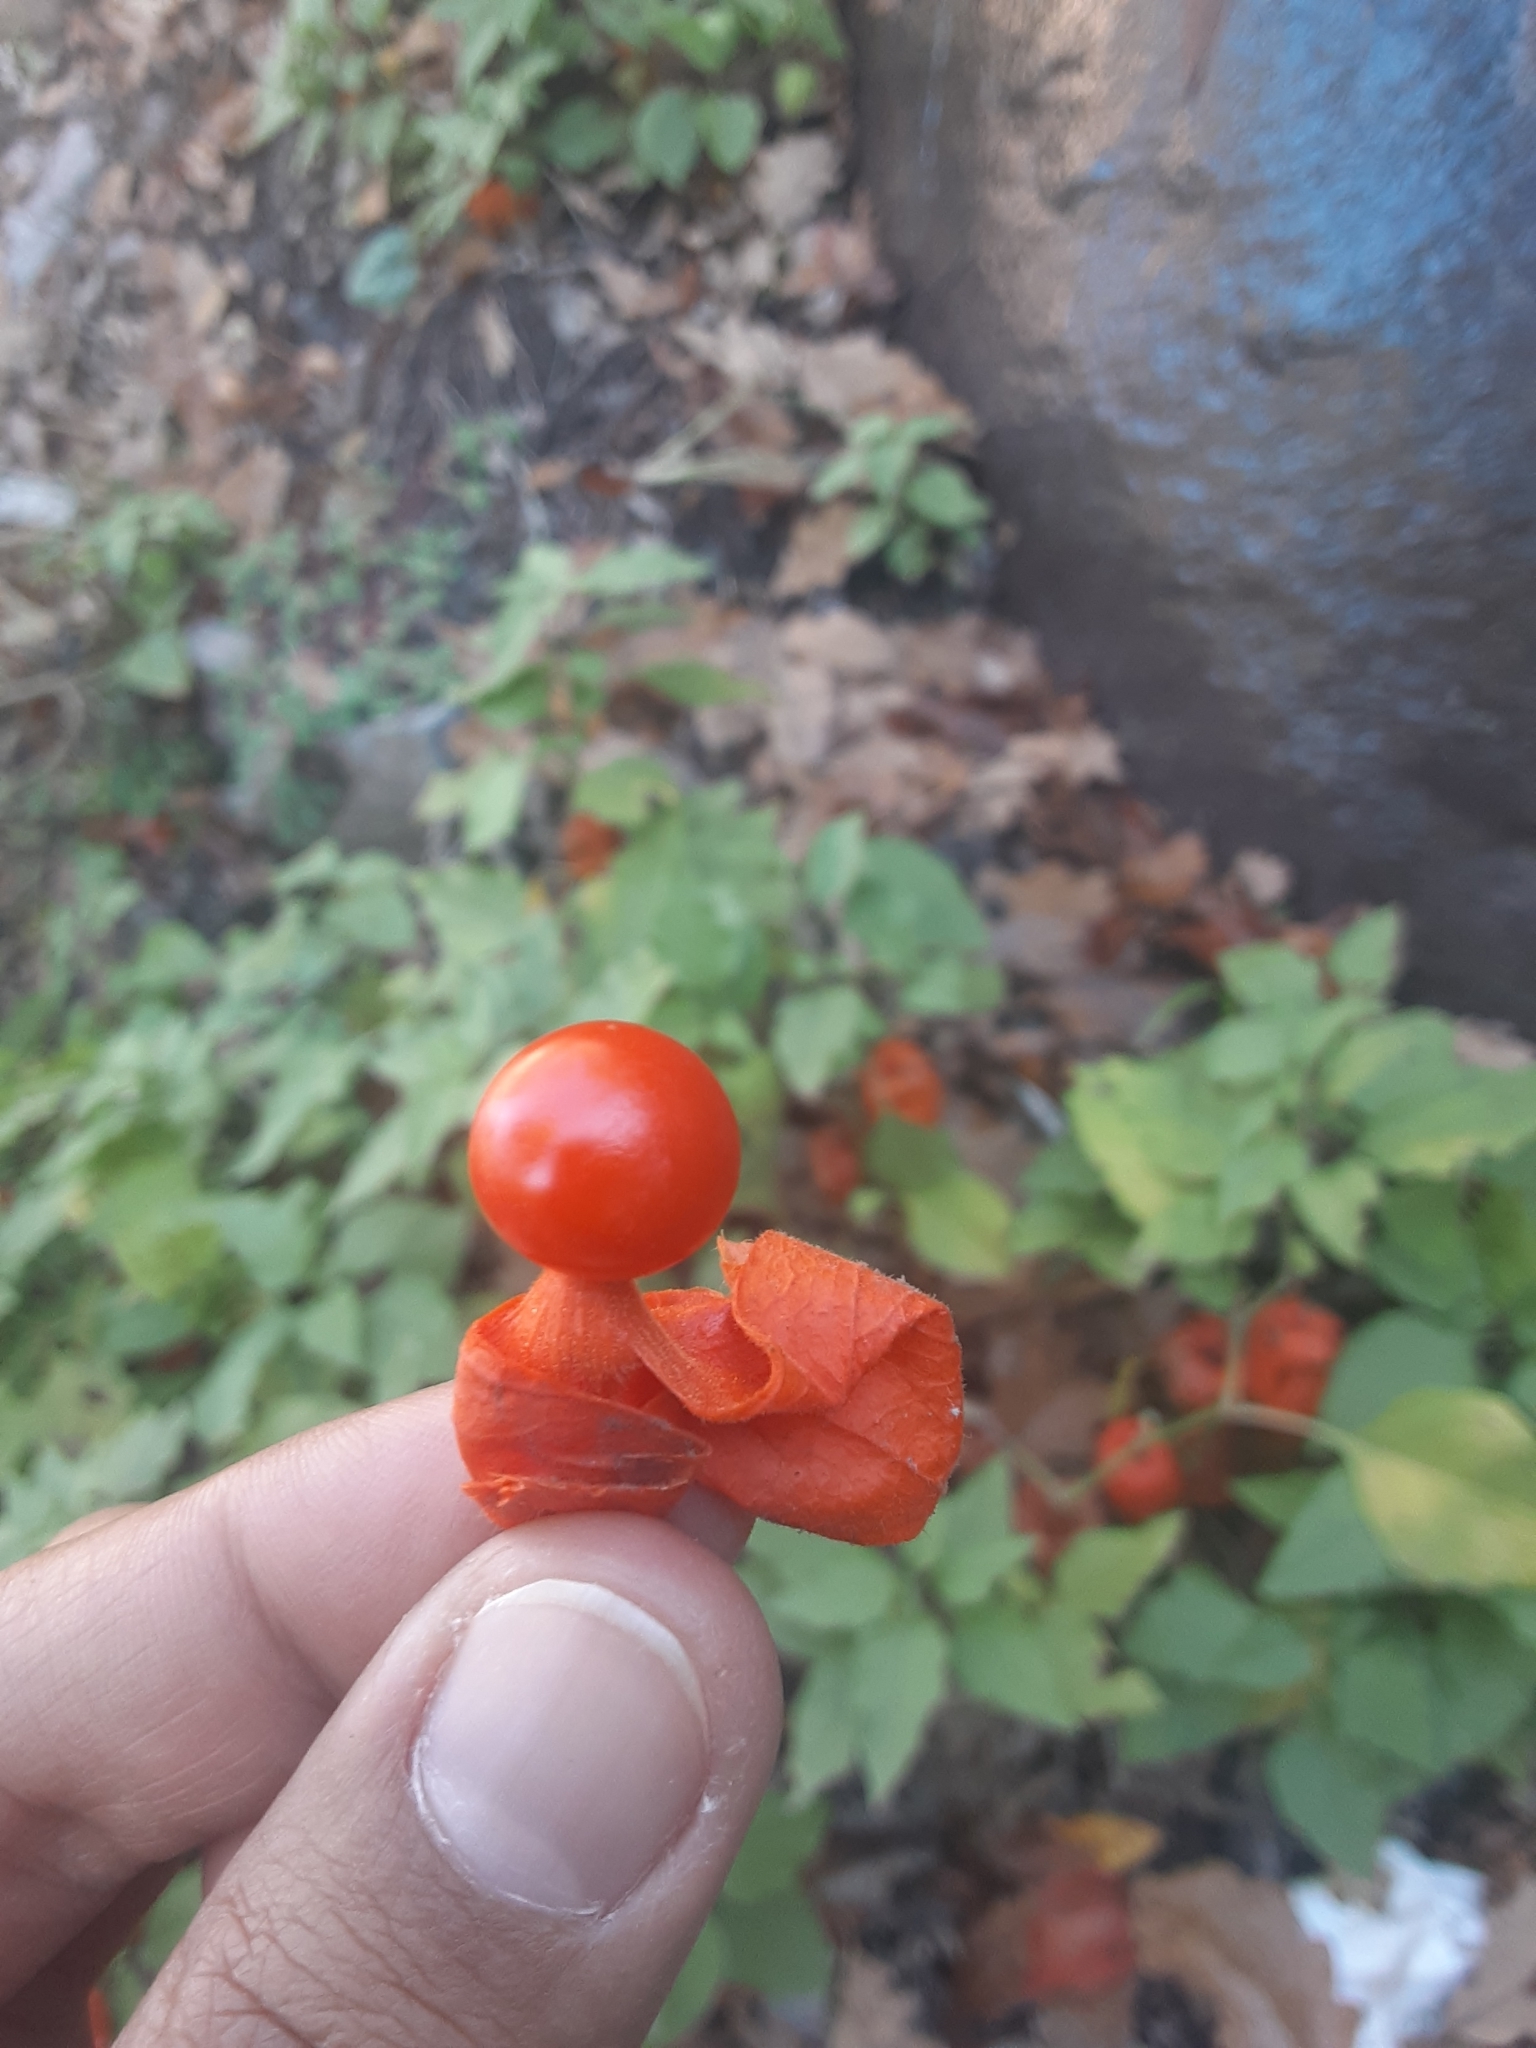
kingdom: Plantae
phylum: Tracheophyta
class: Magnoliopsida
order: Solanales
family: Solanaceae
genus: Alkekengi
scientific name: Alkekengi officinarum
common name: Japanese-lantern
